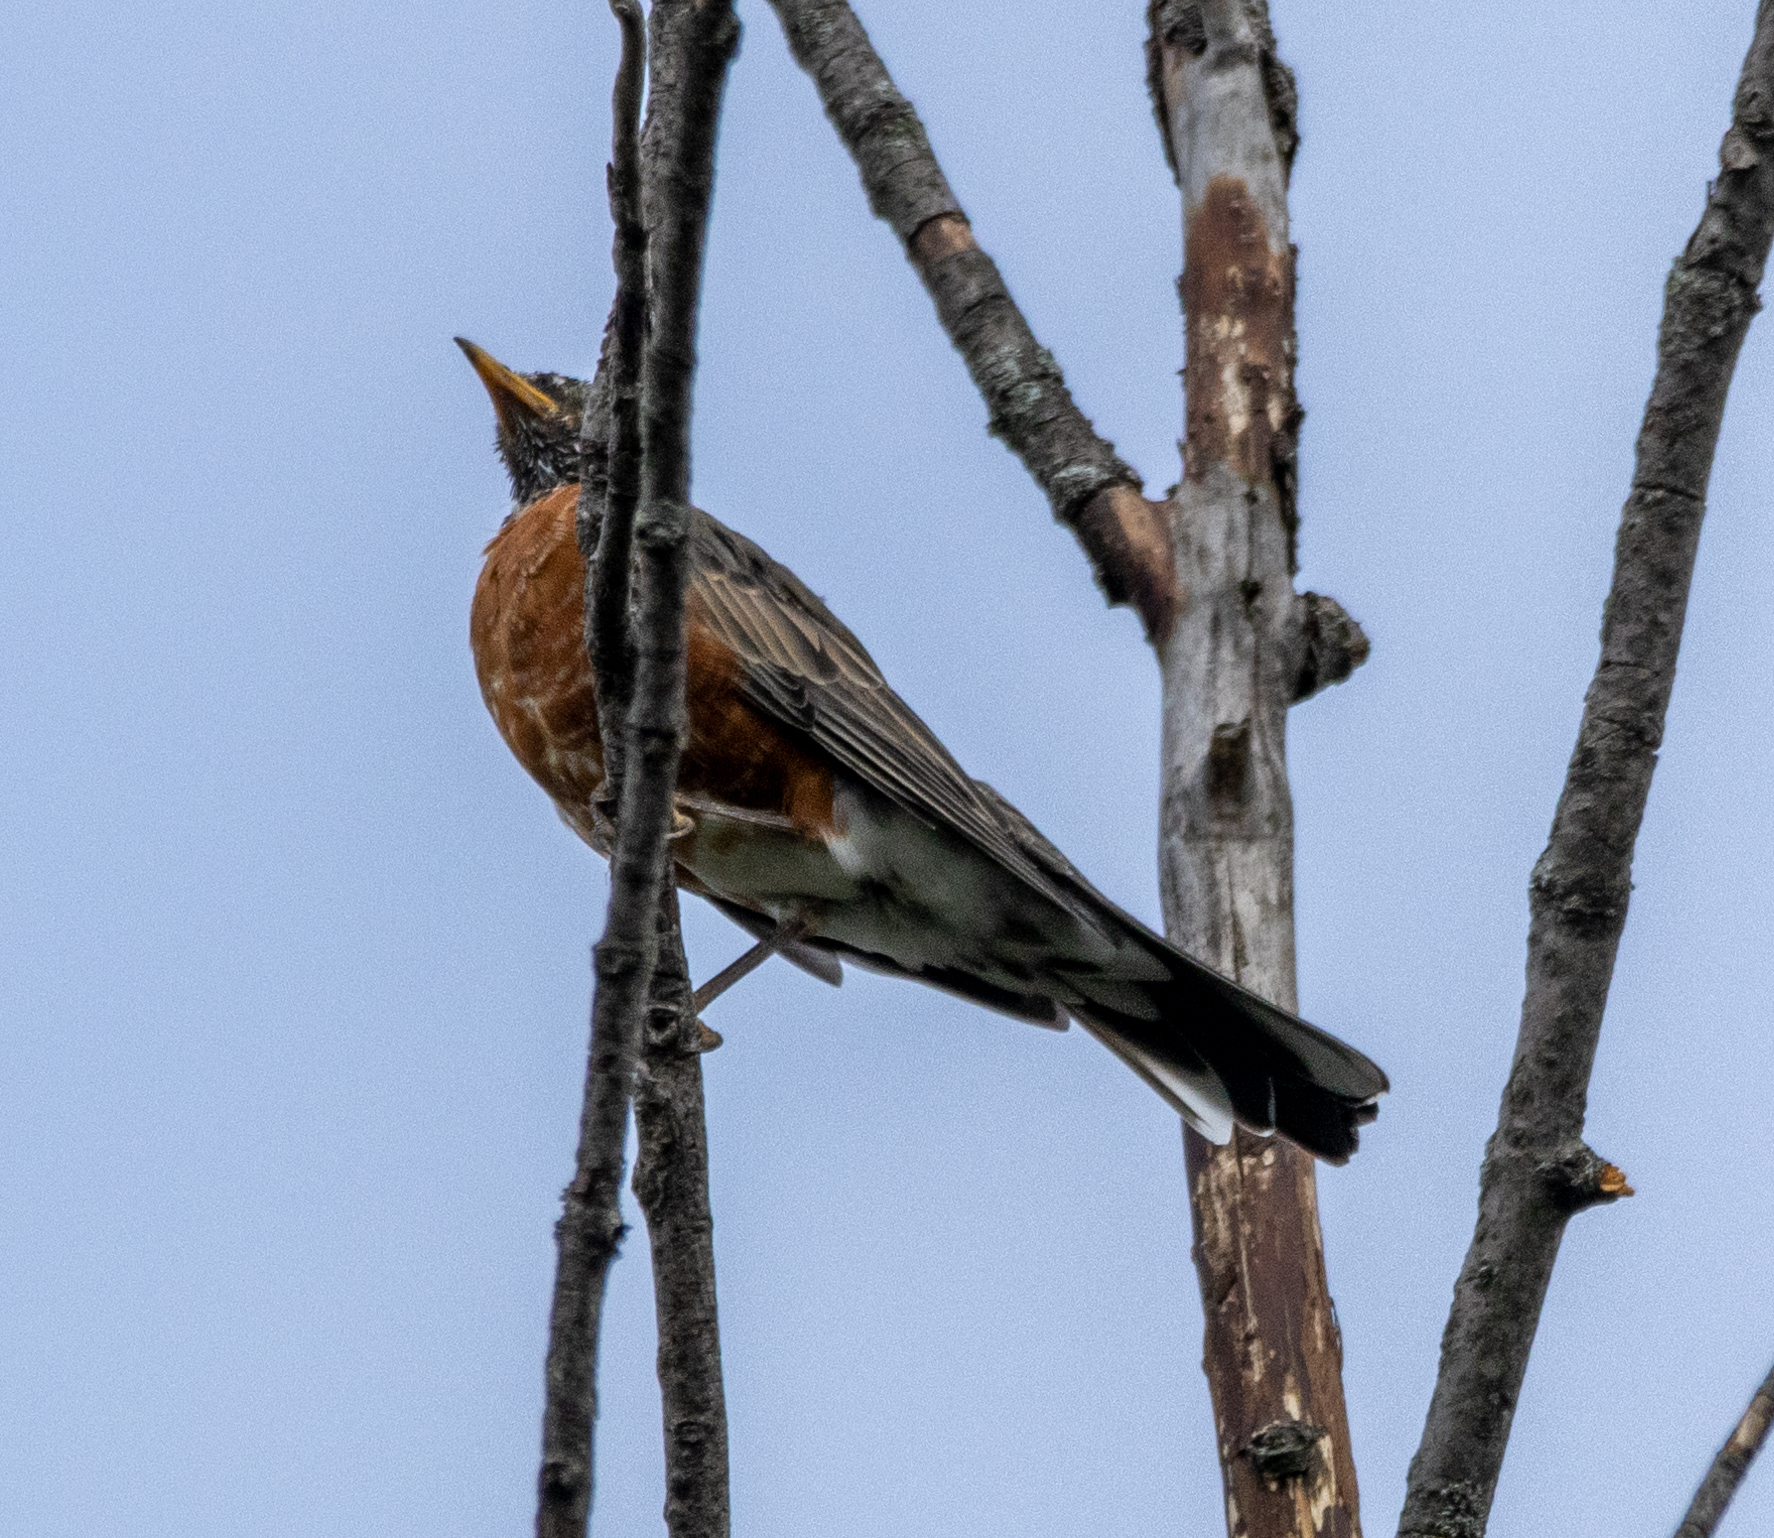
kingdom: Animalia
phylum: Chordata
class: Aves
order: Passeriformes
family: Turdidae
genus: Turdus
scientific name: Turdus migratorius
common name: American robin
